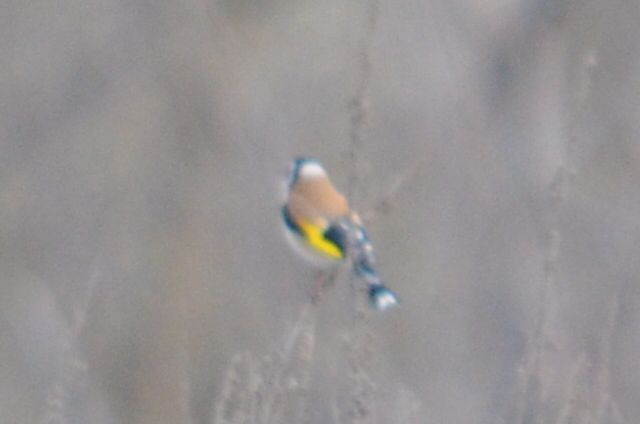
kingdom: Animalia
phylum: Chordata
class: Aves
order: Passeriformes
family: Fringillidae
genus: Carduelis
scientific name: Carduelis carduelis
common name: European goldfinch
